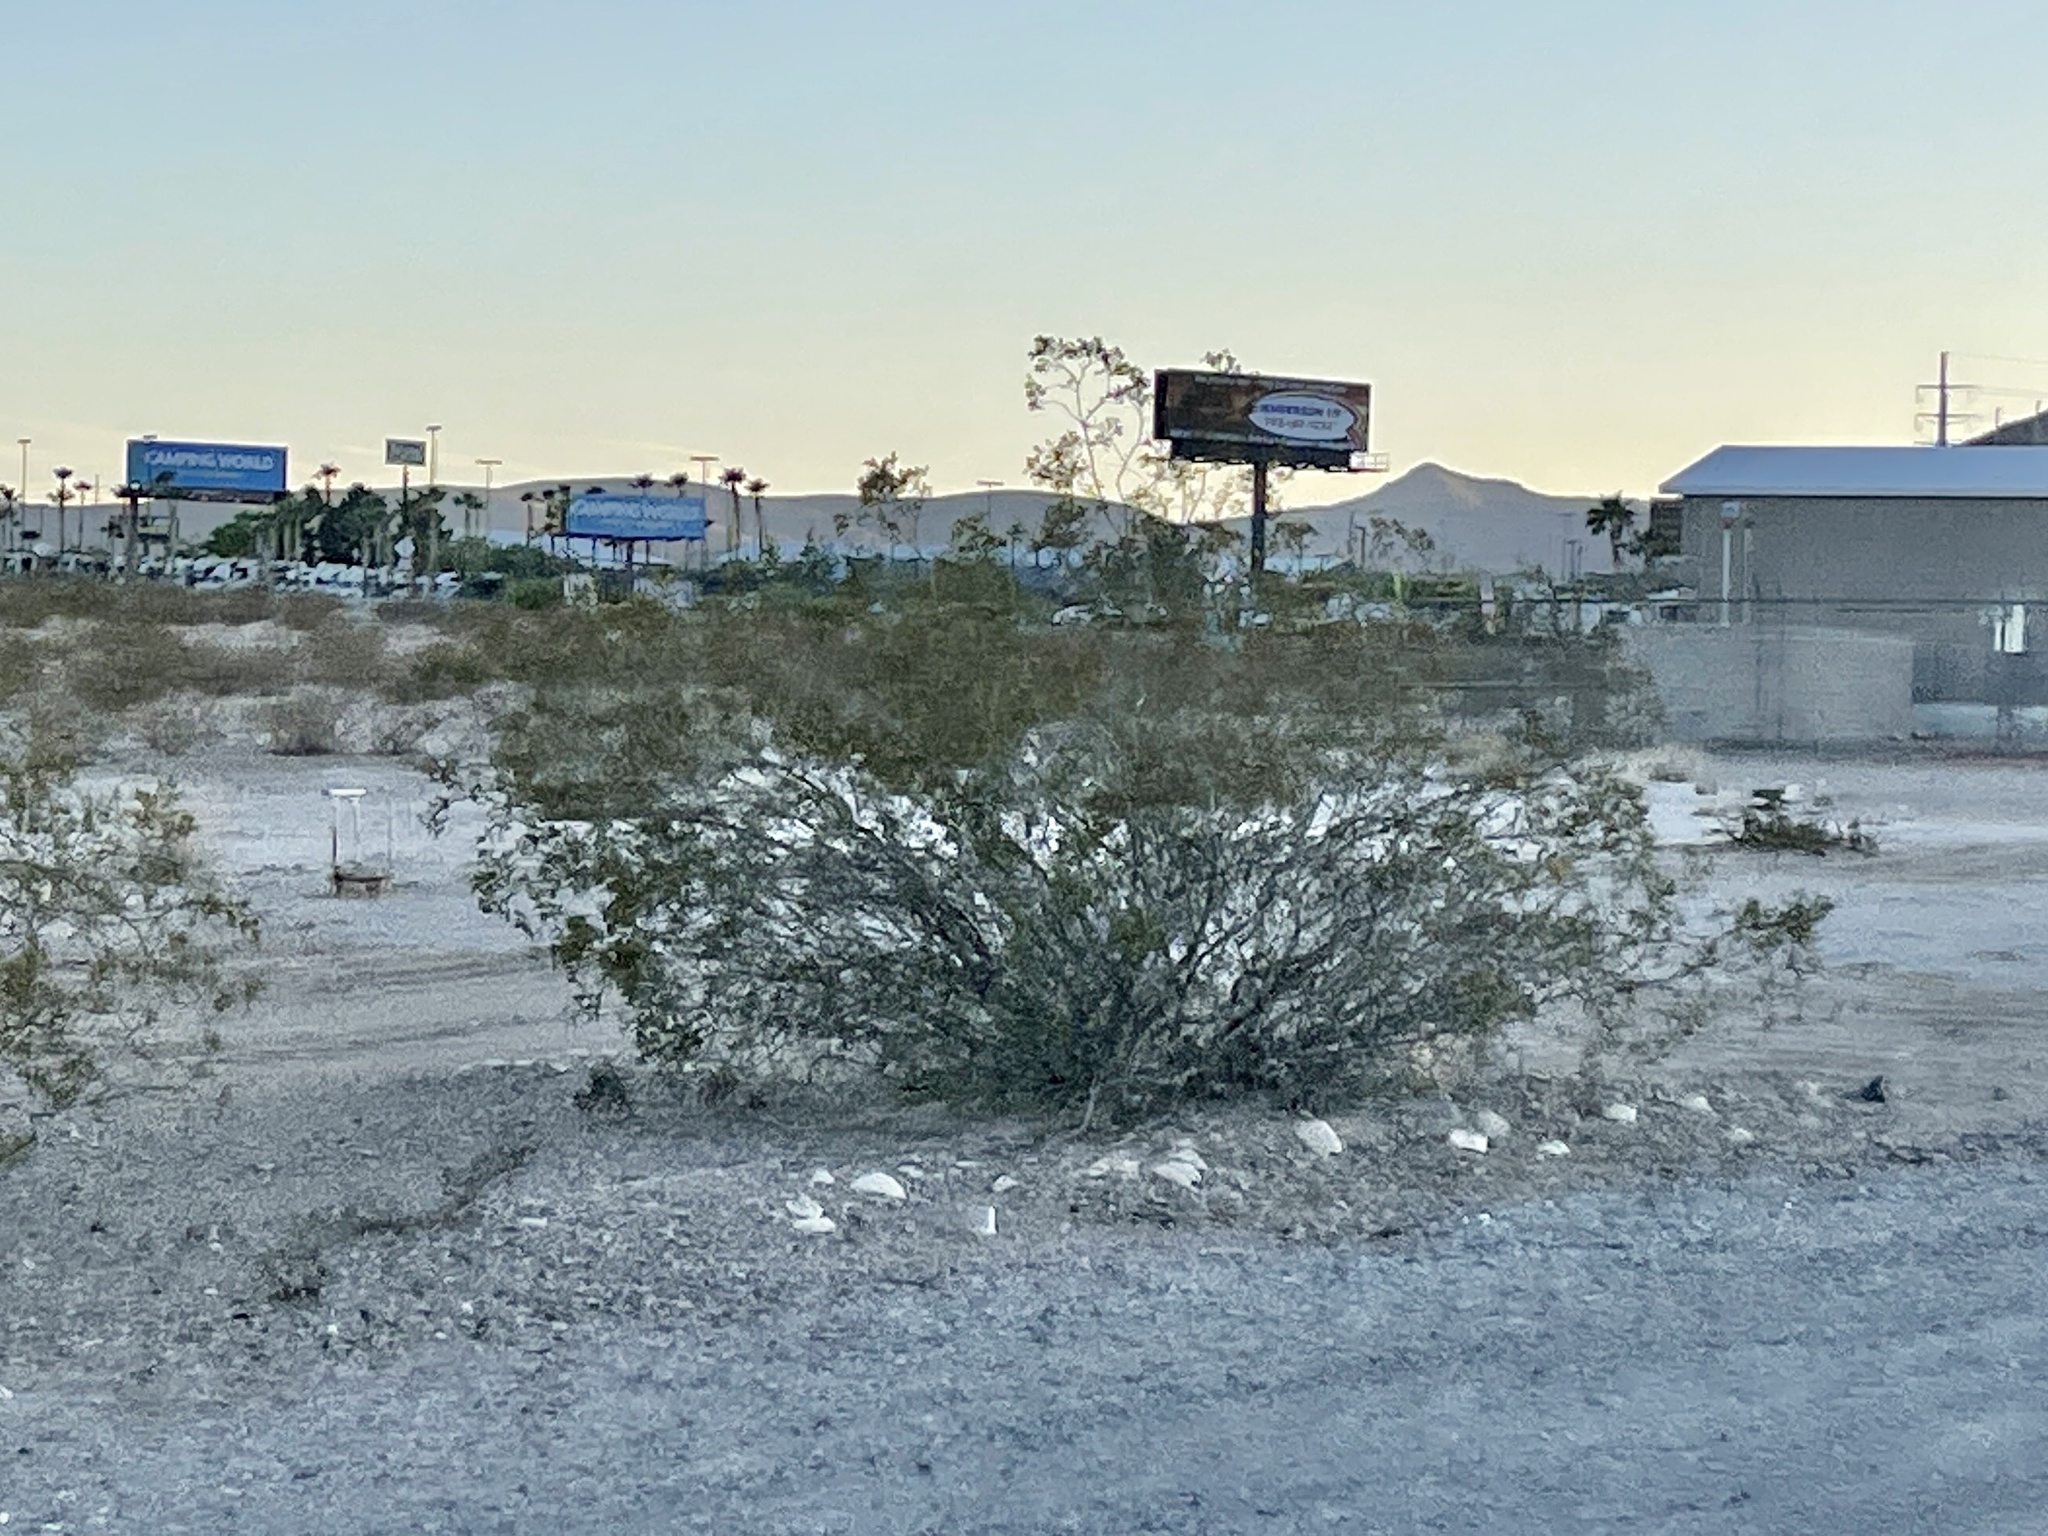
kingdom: Plantae
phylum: Tracheophyta
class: Magnoliopsida
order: Zygophyllales
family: Zygophyllaceae
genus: Larrea
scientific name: Larrea tridentata
